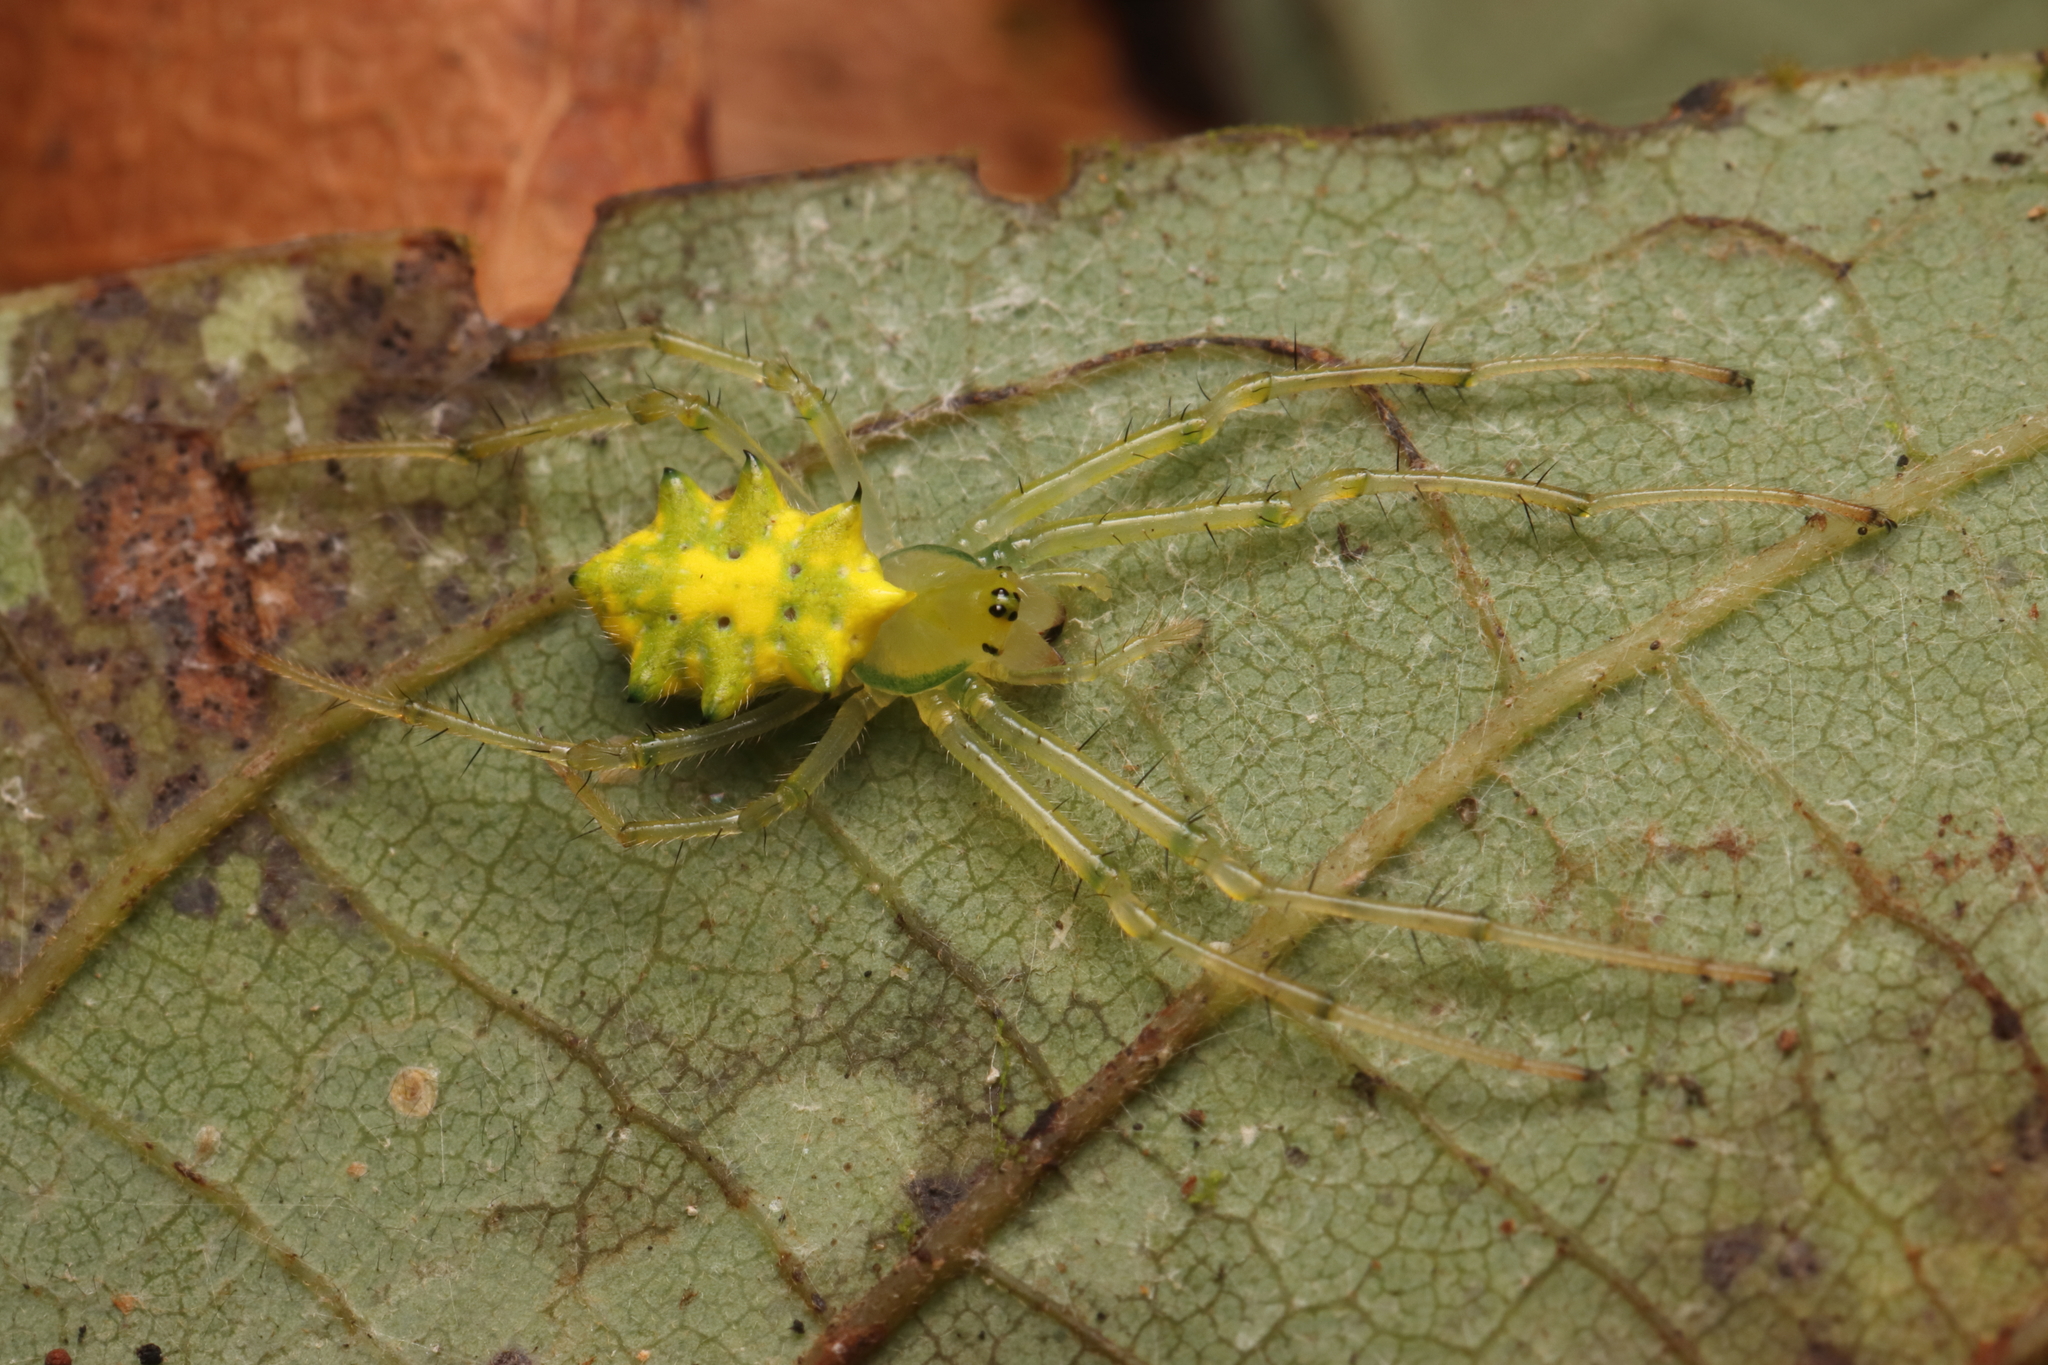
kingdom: Animalia
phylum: Arthropoda
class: Arachnida
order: Araneae
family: Araneidae
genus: Alpaida
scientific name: Alpaida octolobata
